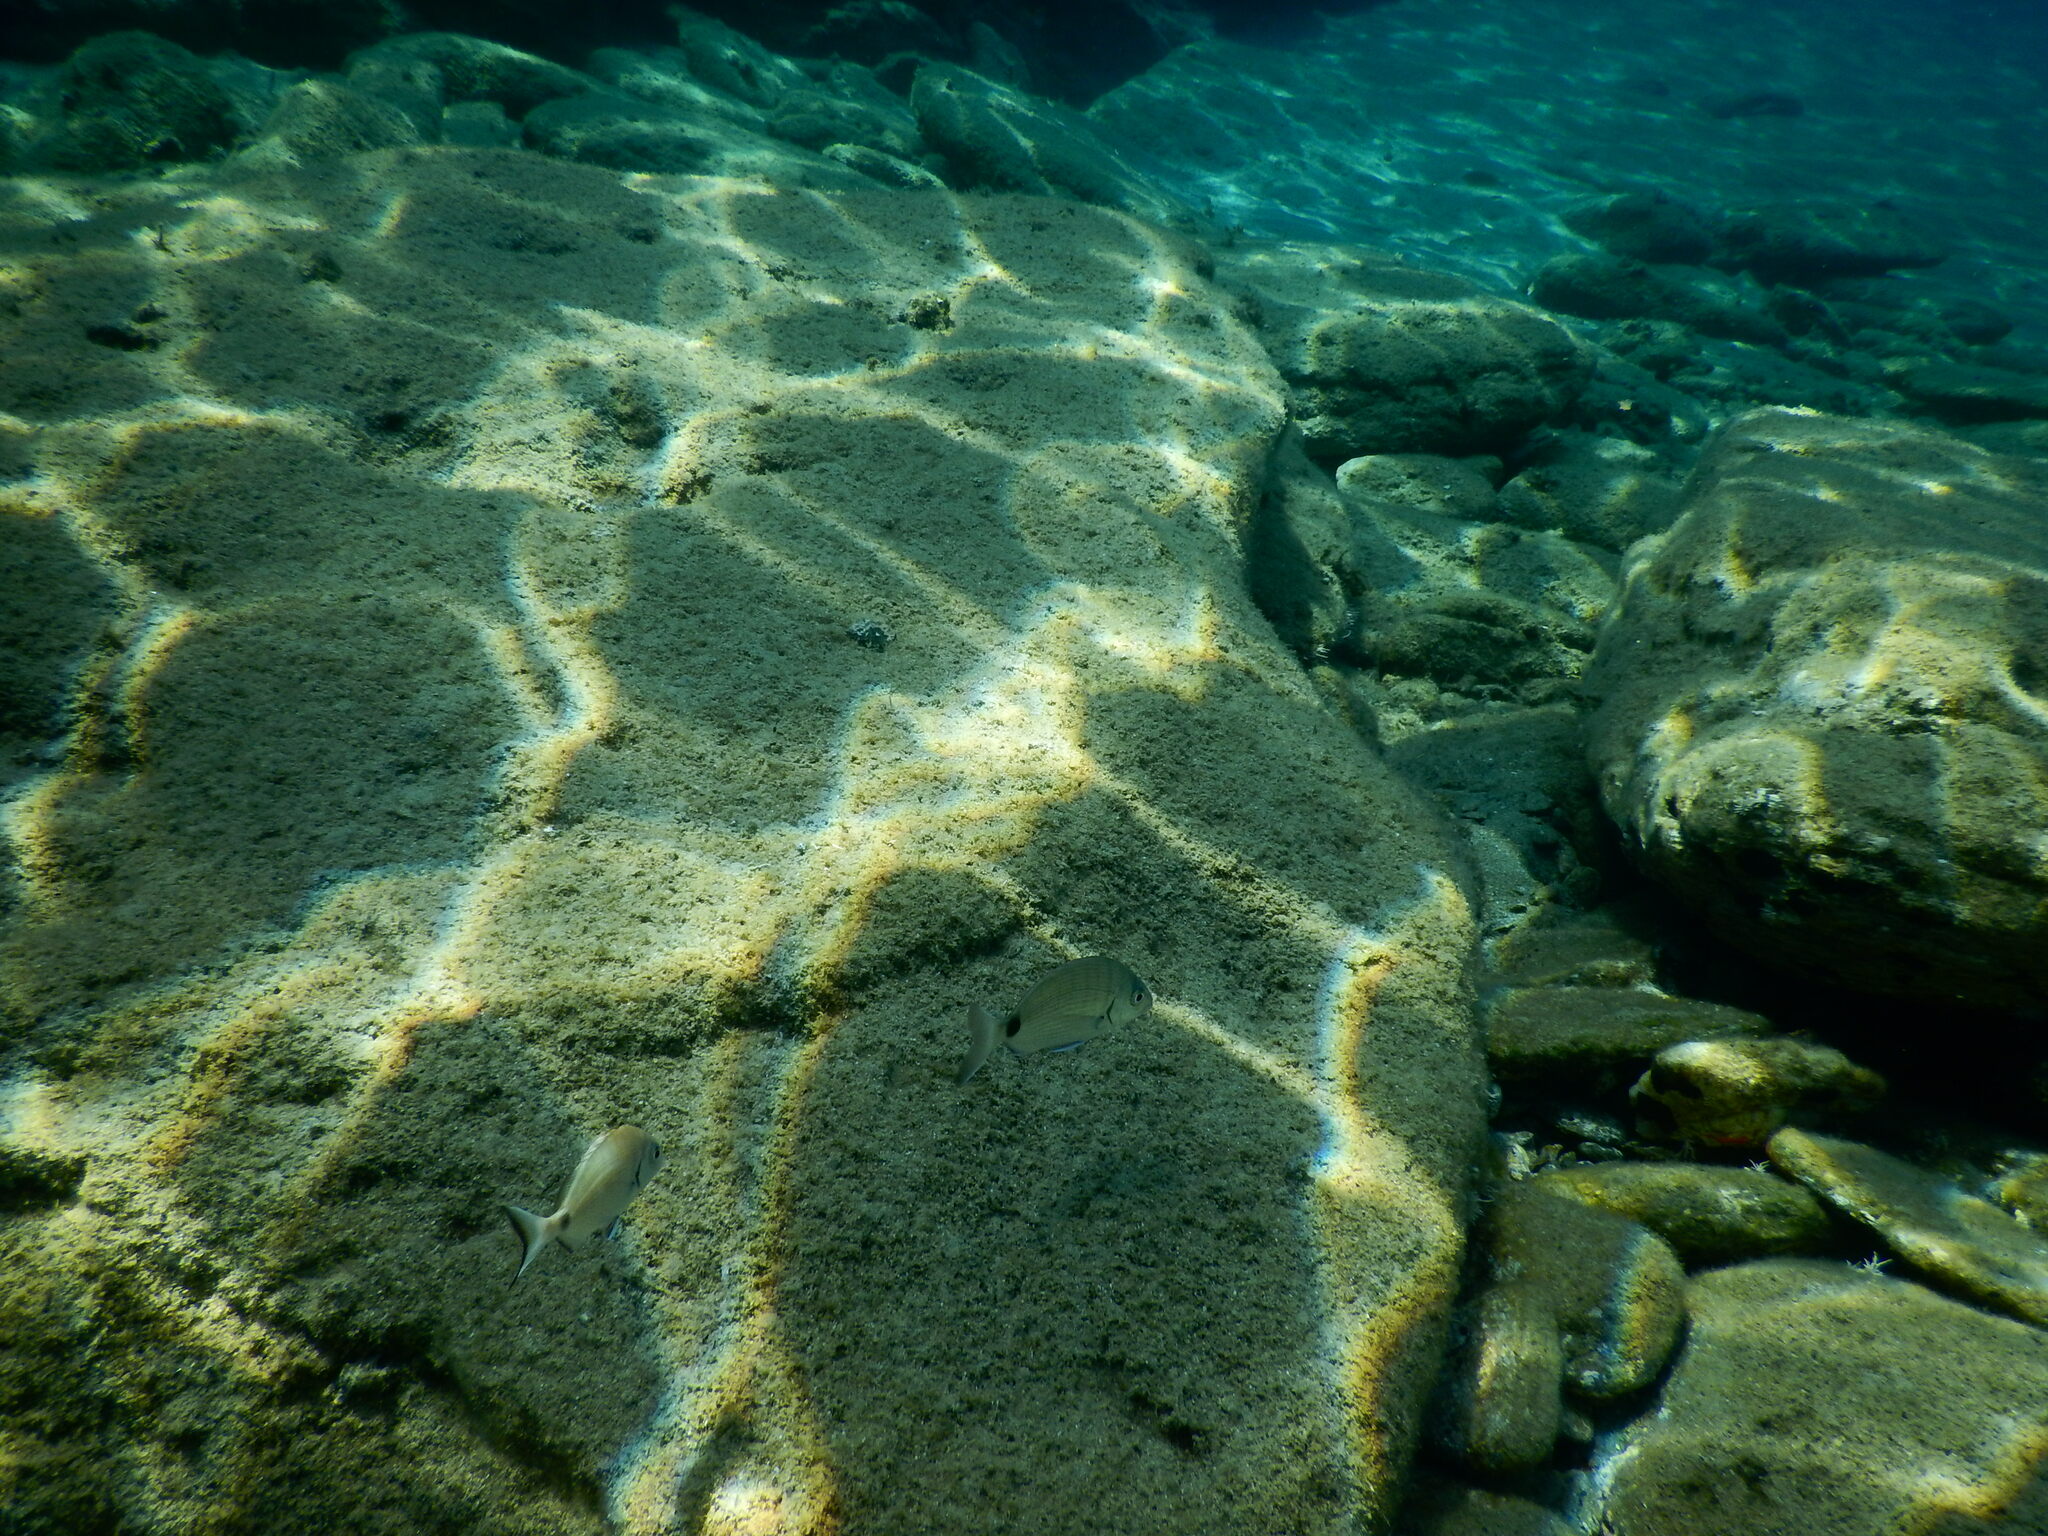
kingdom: Animalia
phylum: Chordata
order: Perciformes
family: Sparidae
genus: Diplodus
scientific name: Diplodus sargus
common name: White seabream
